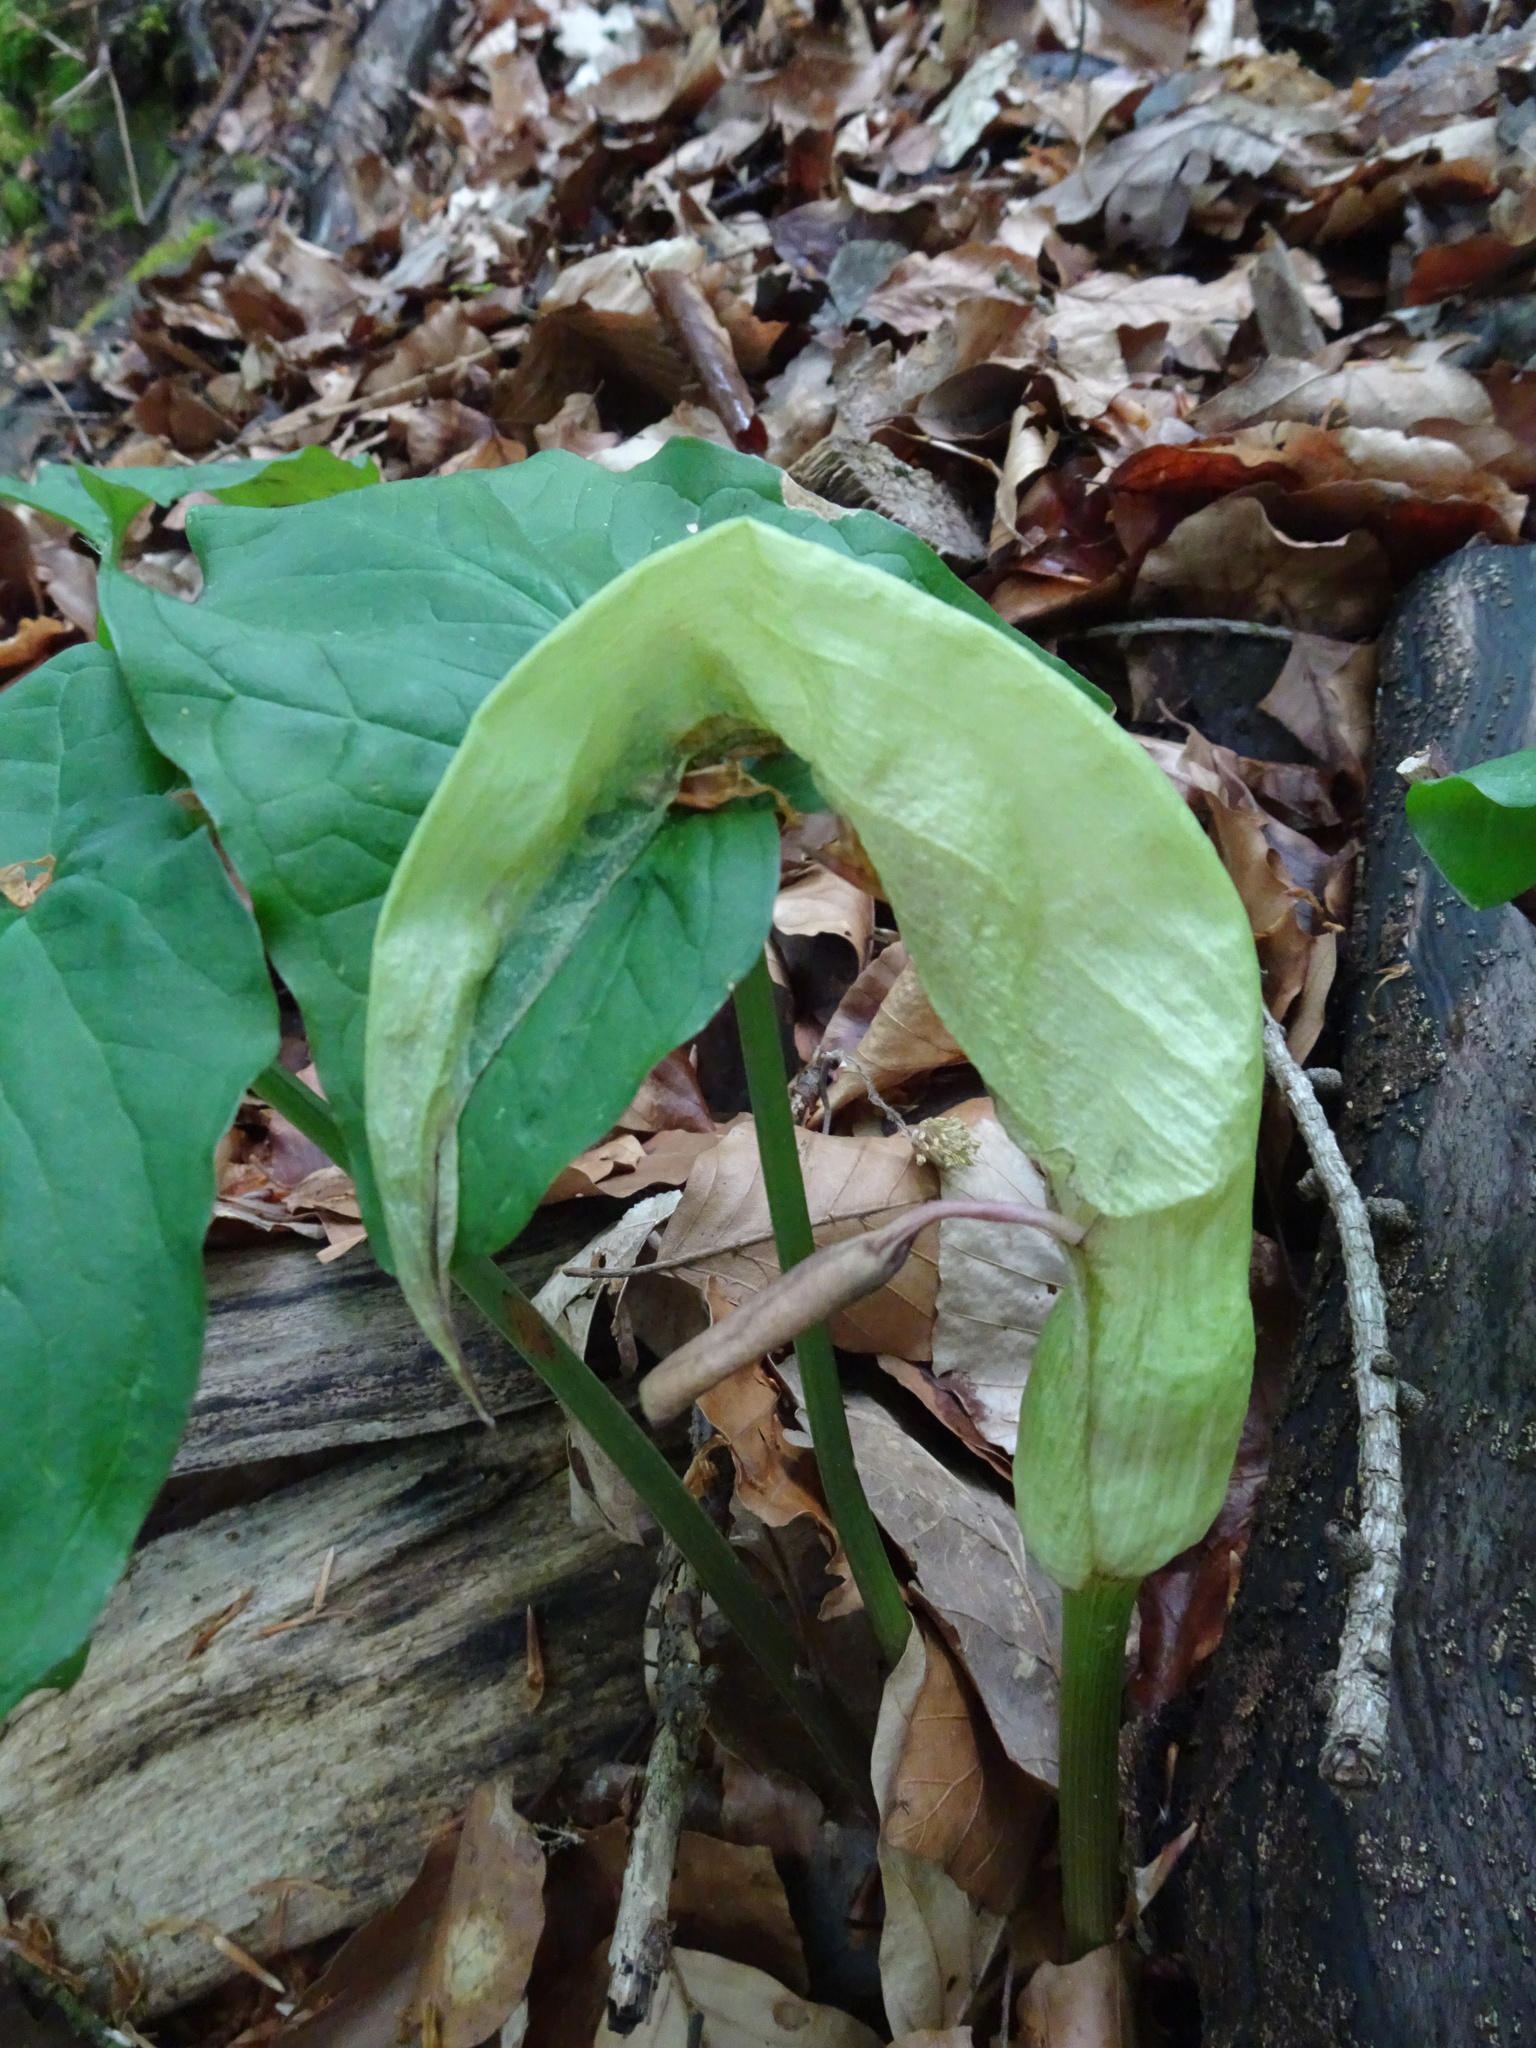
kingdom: Plantae
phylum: Tracheophyta
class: Liliopsida
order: Alismatales
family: Araceae
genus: Arum
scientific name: Arum maculatum
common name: Lords-and-ladies
